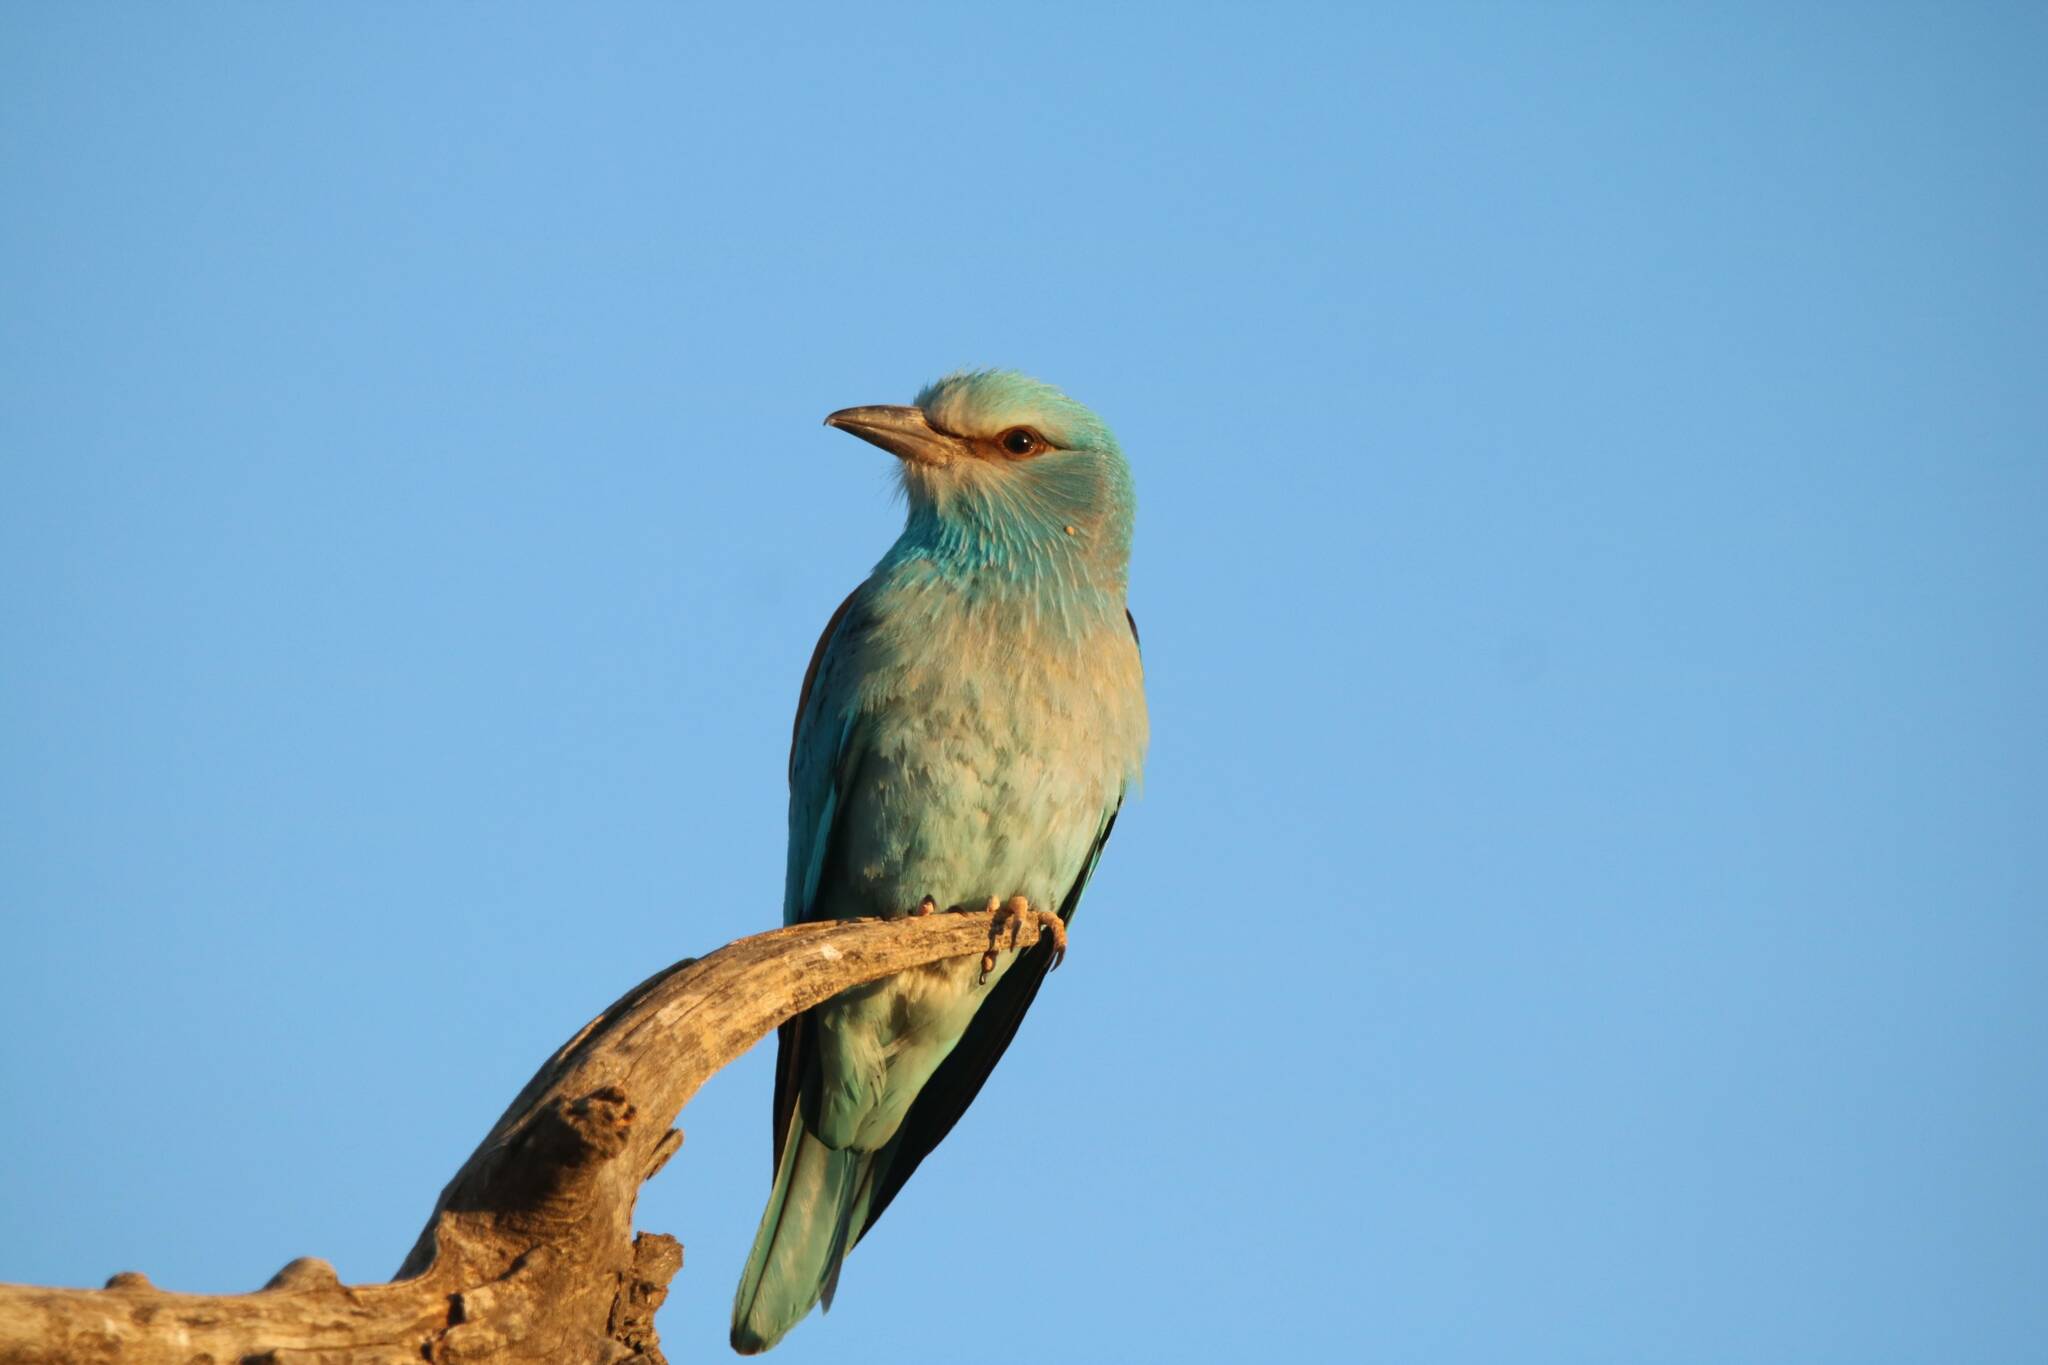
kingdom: Animalia
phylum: Chordata
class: Aves
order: Coraciiformes
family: Coraciidae
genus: Coracias
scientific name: Coracias garrulus
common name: European roller
